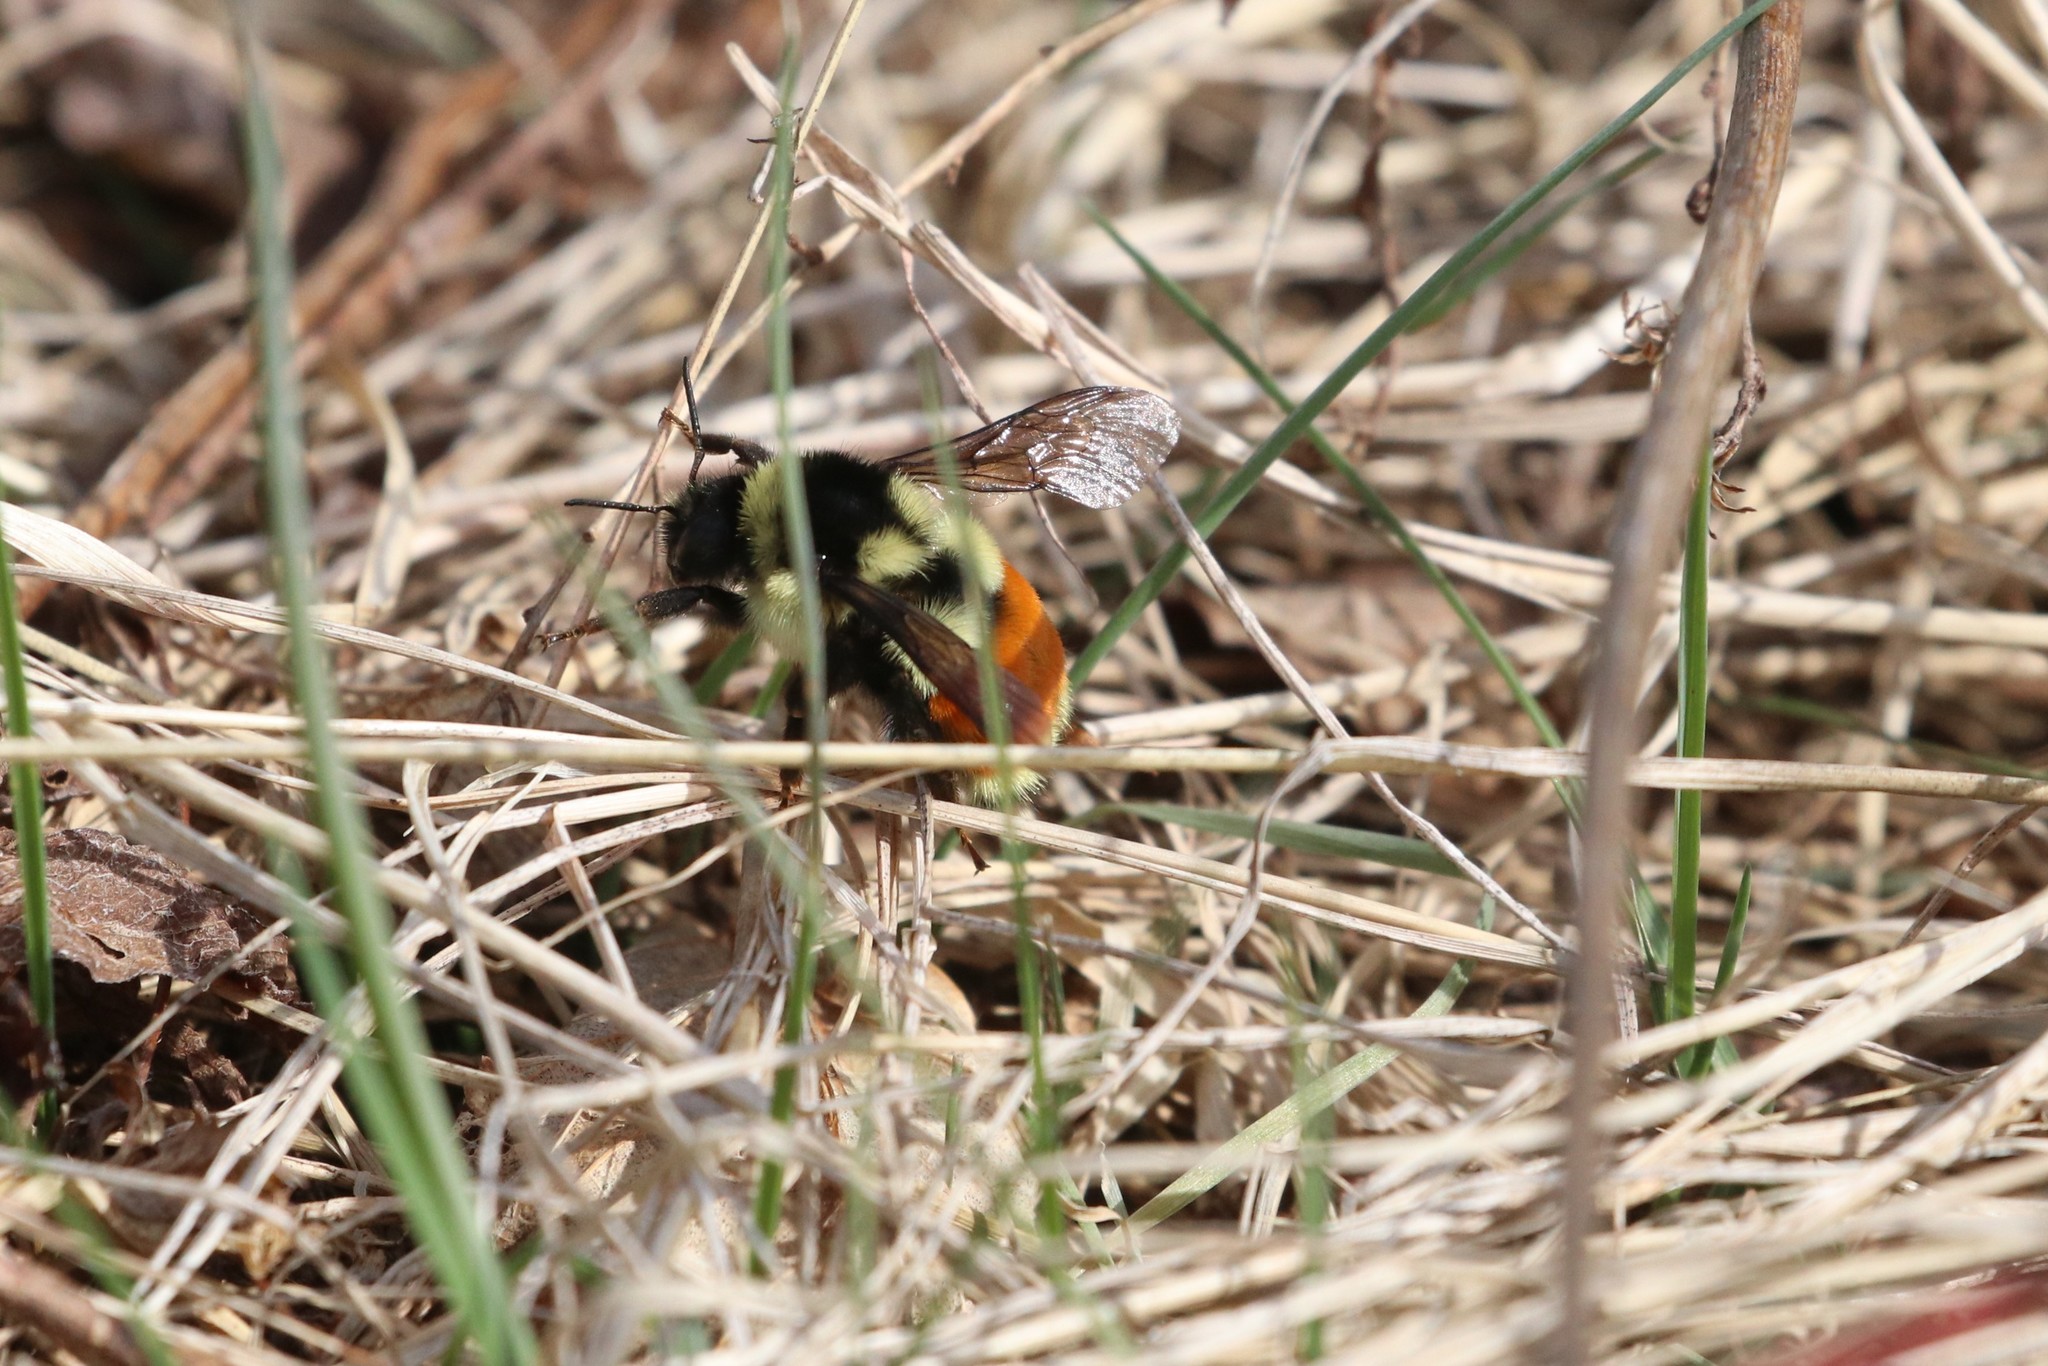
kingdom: Animalia
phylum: Arthropoda
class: Insecta
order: Hymenoptera
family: Apidae
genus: Bombus
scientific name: Bombus ternarius
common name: Tri-colored bumble bee
